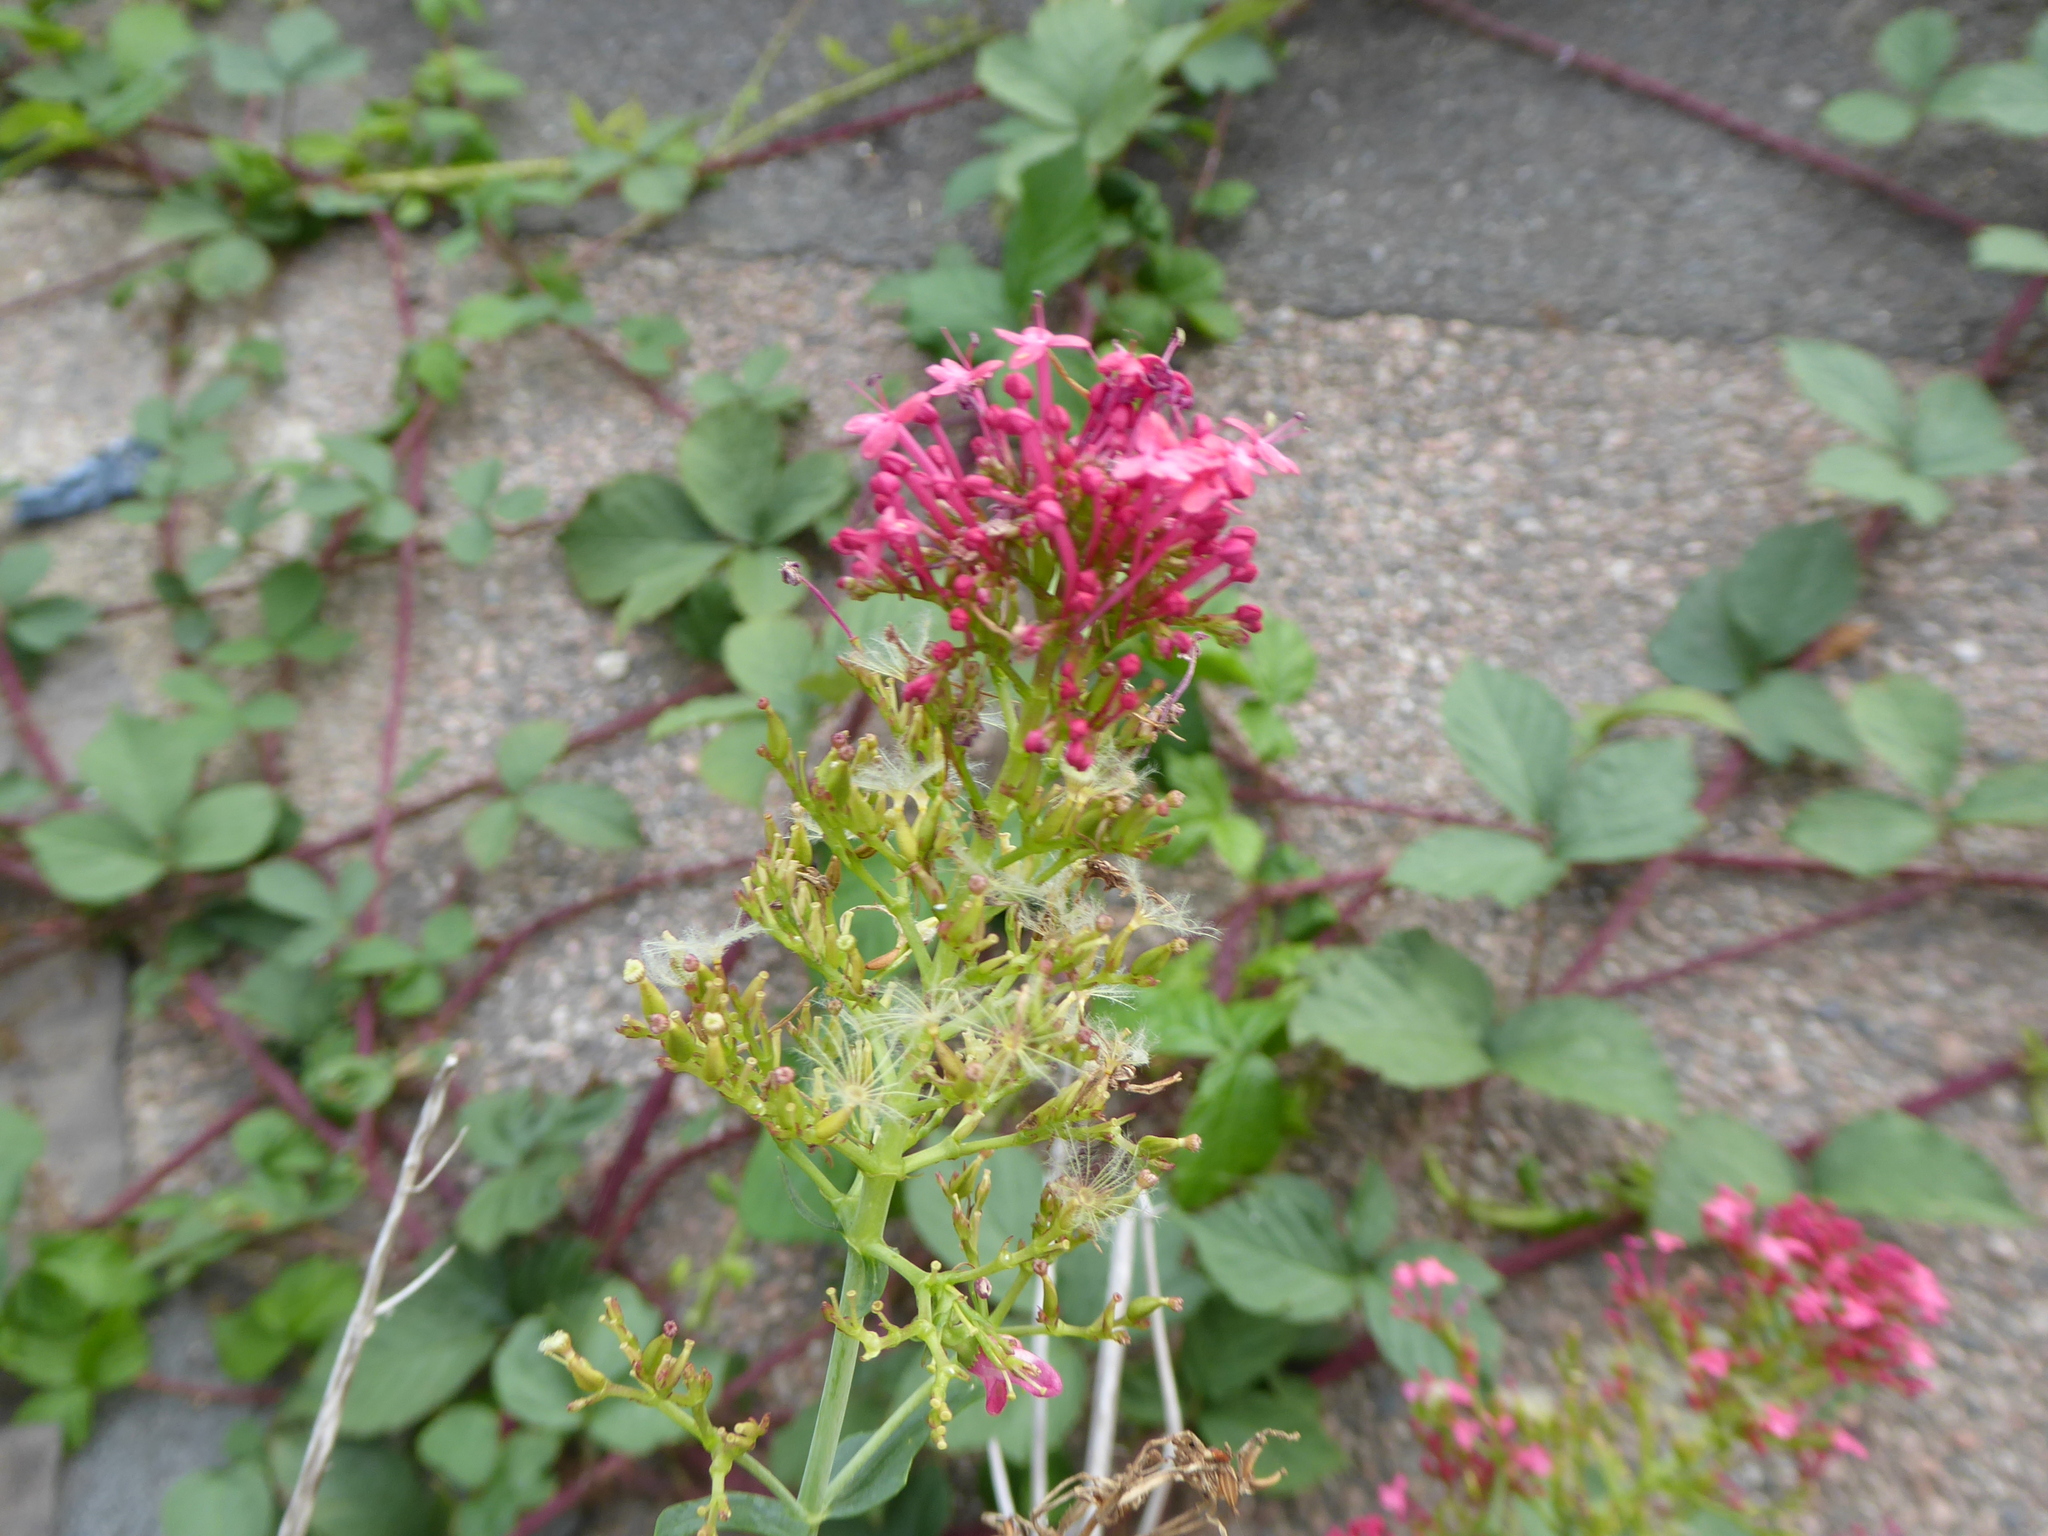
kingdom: Plantae
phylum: Tracheophyta
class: Magnoliopsida
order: Dipsacales
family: Caprifoliaceae
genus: Centranthus
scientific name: Centranthus ruber
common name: Red valerian
